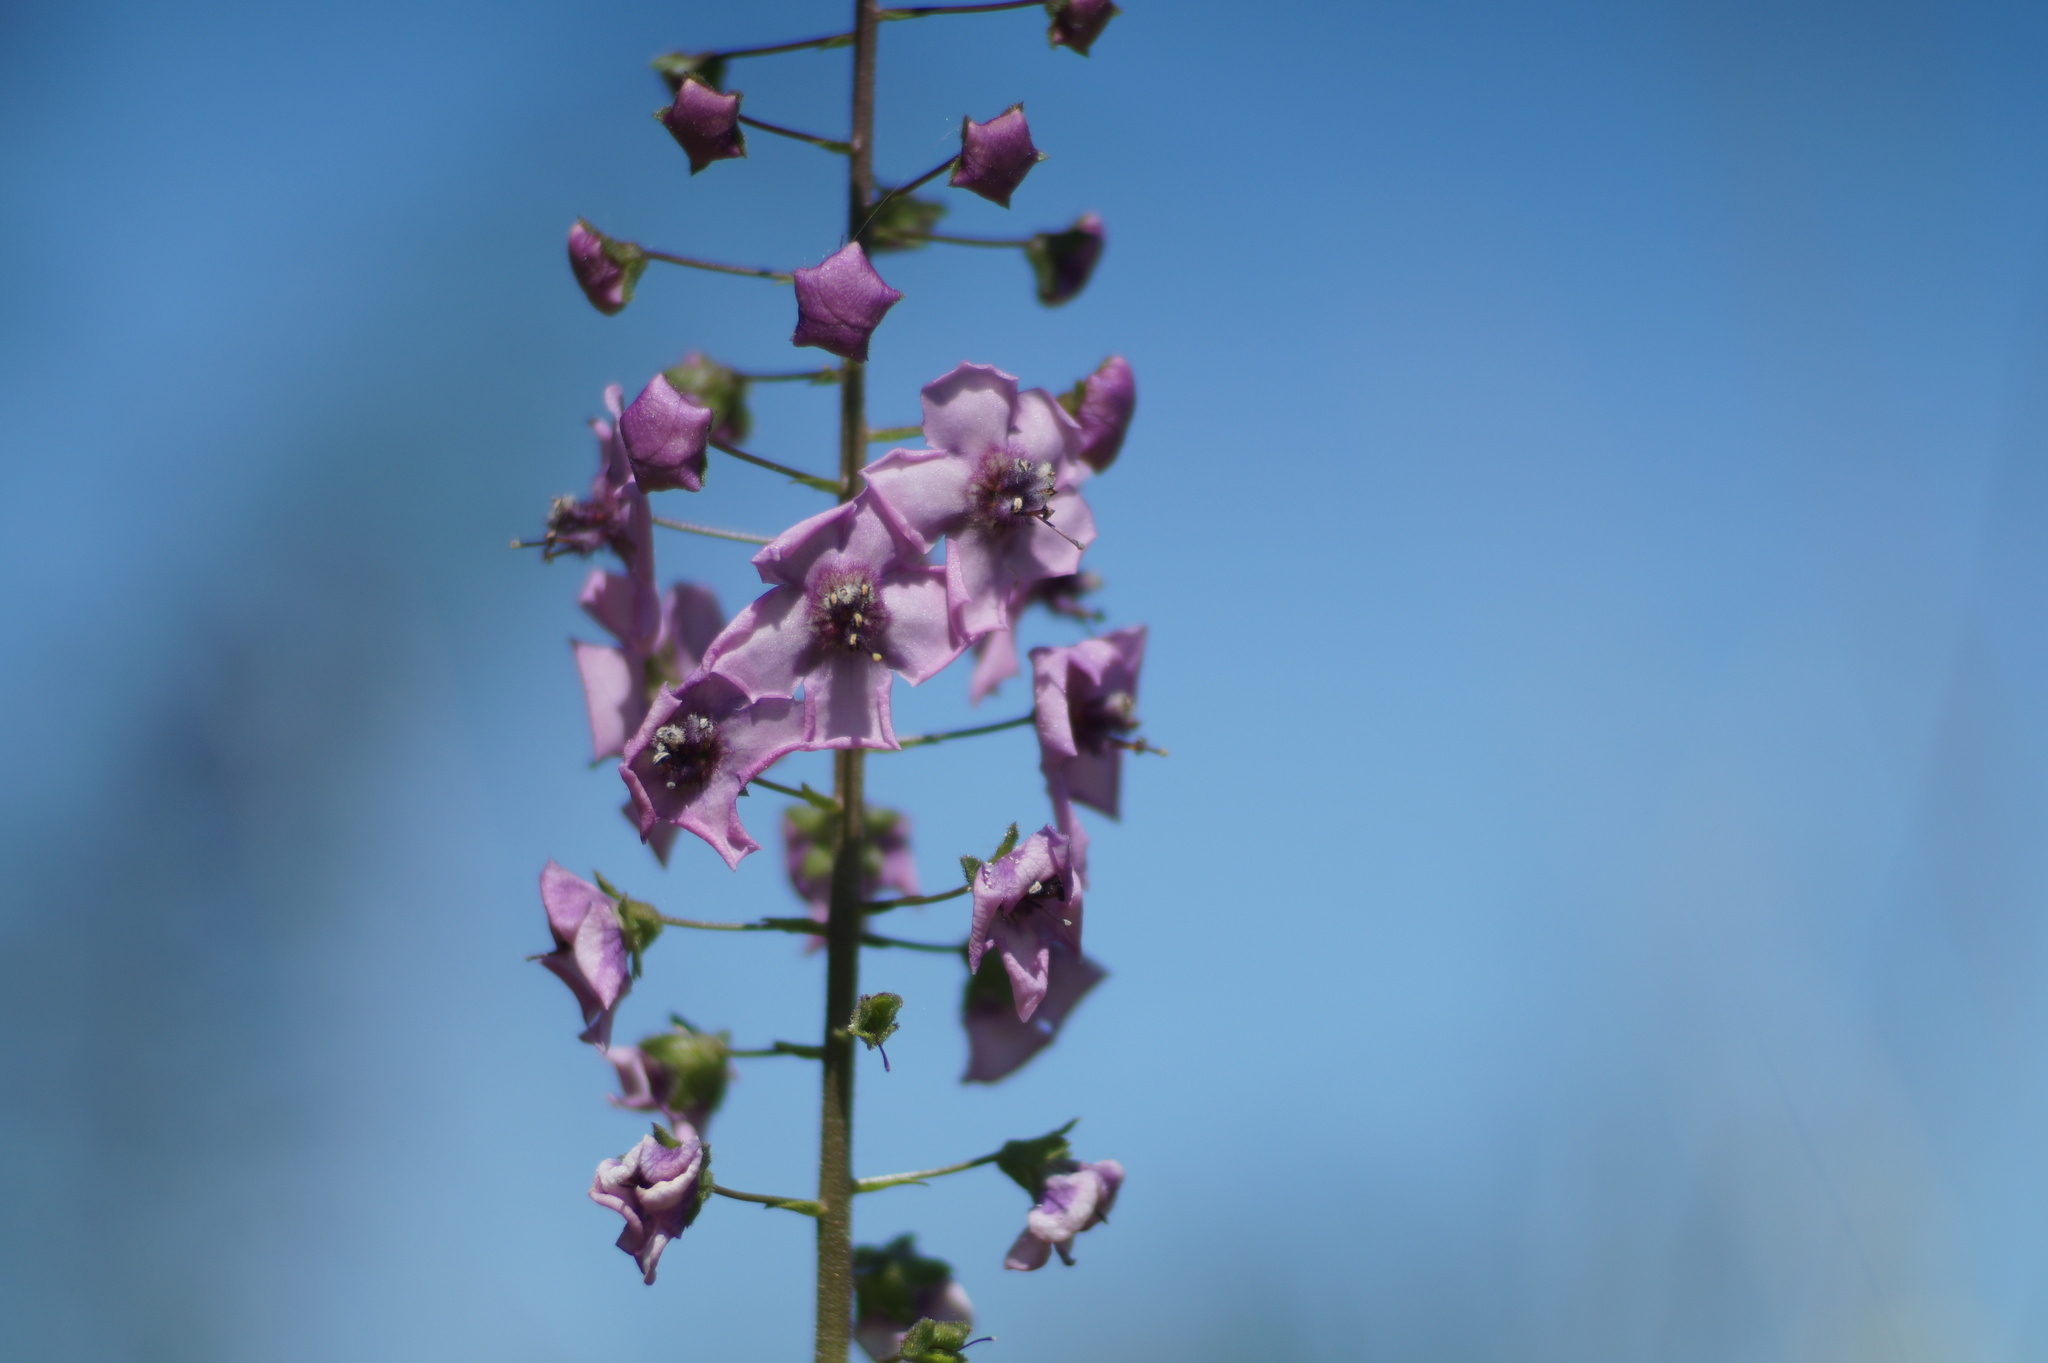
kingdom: Plantae
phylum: Tracheophyta
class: Magnoliopsida
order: Lamiales
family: Scrophulariaceae
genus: Verbascum
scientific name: Verbascum phoeniceum
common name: Purple mullein
